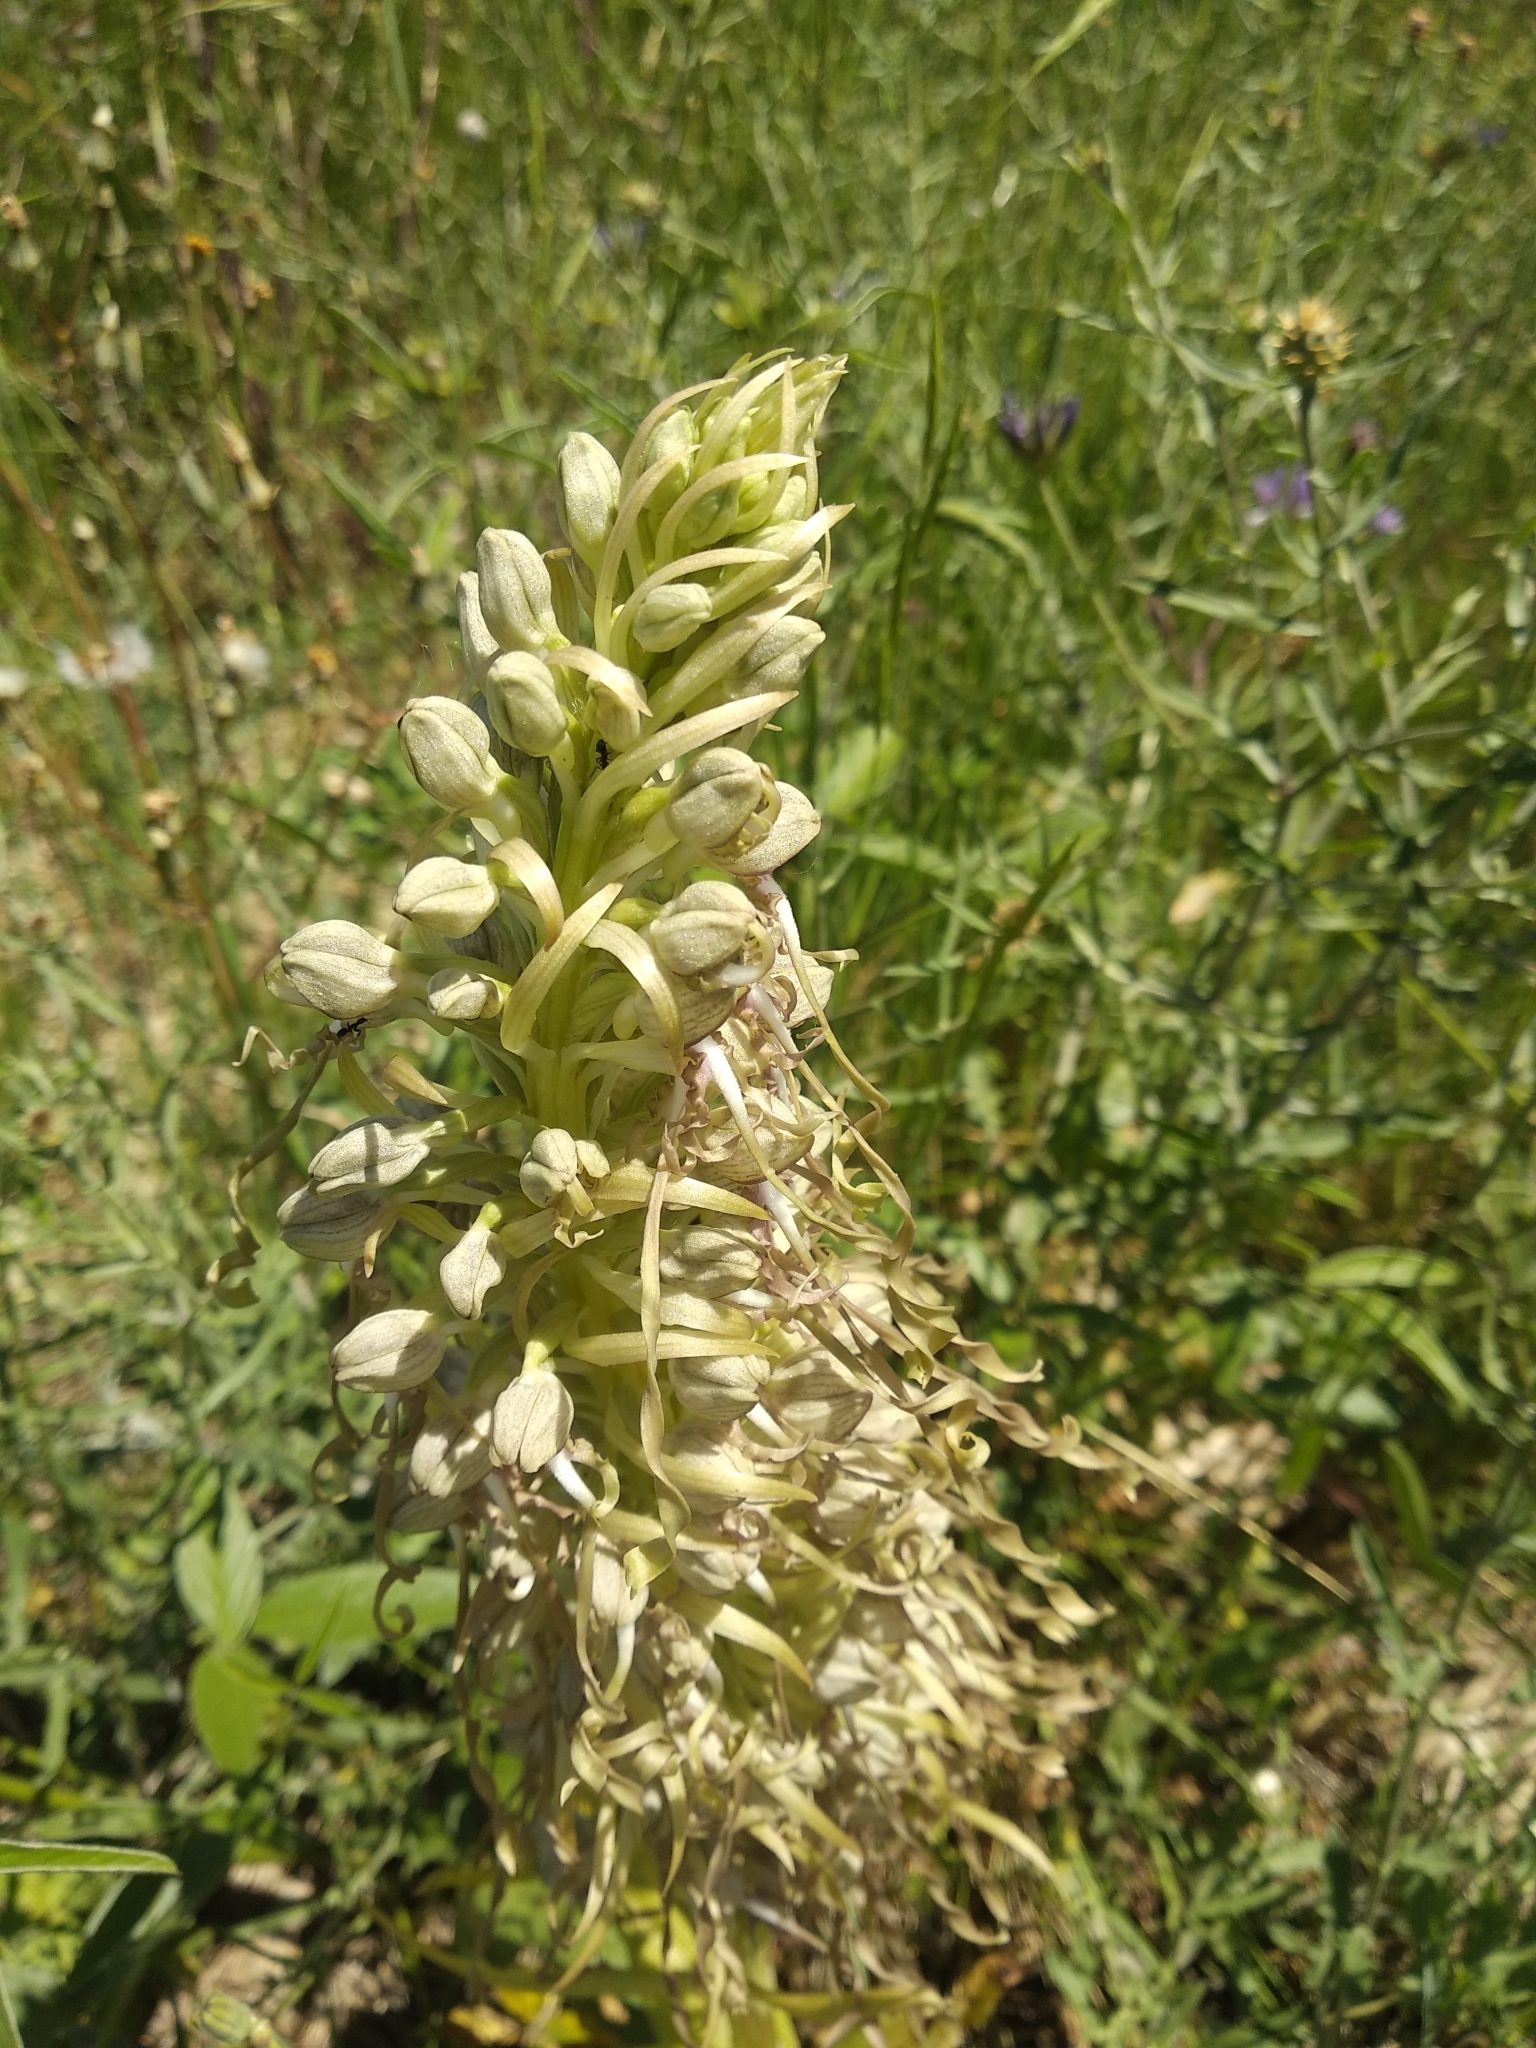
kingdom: Plantae
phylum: Tracheophyta
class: Liliopsida
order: Asparagales
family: Orchidaceae
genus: Himantoglossum
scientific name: Himantoglossum hircinum
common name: Lizard orchid
